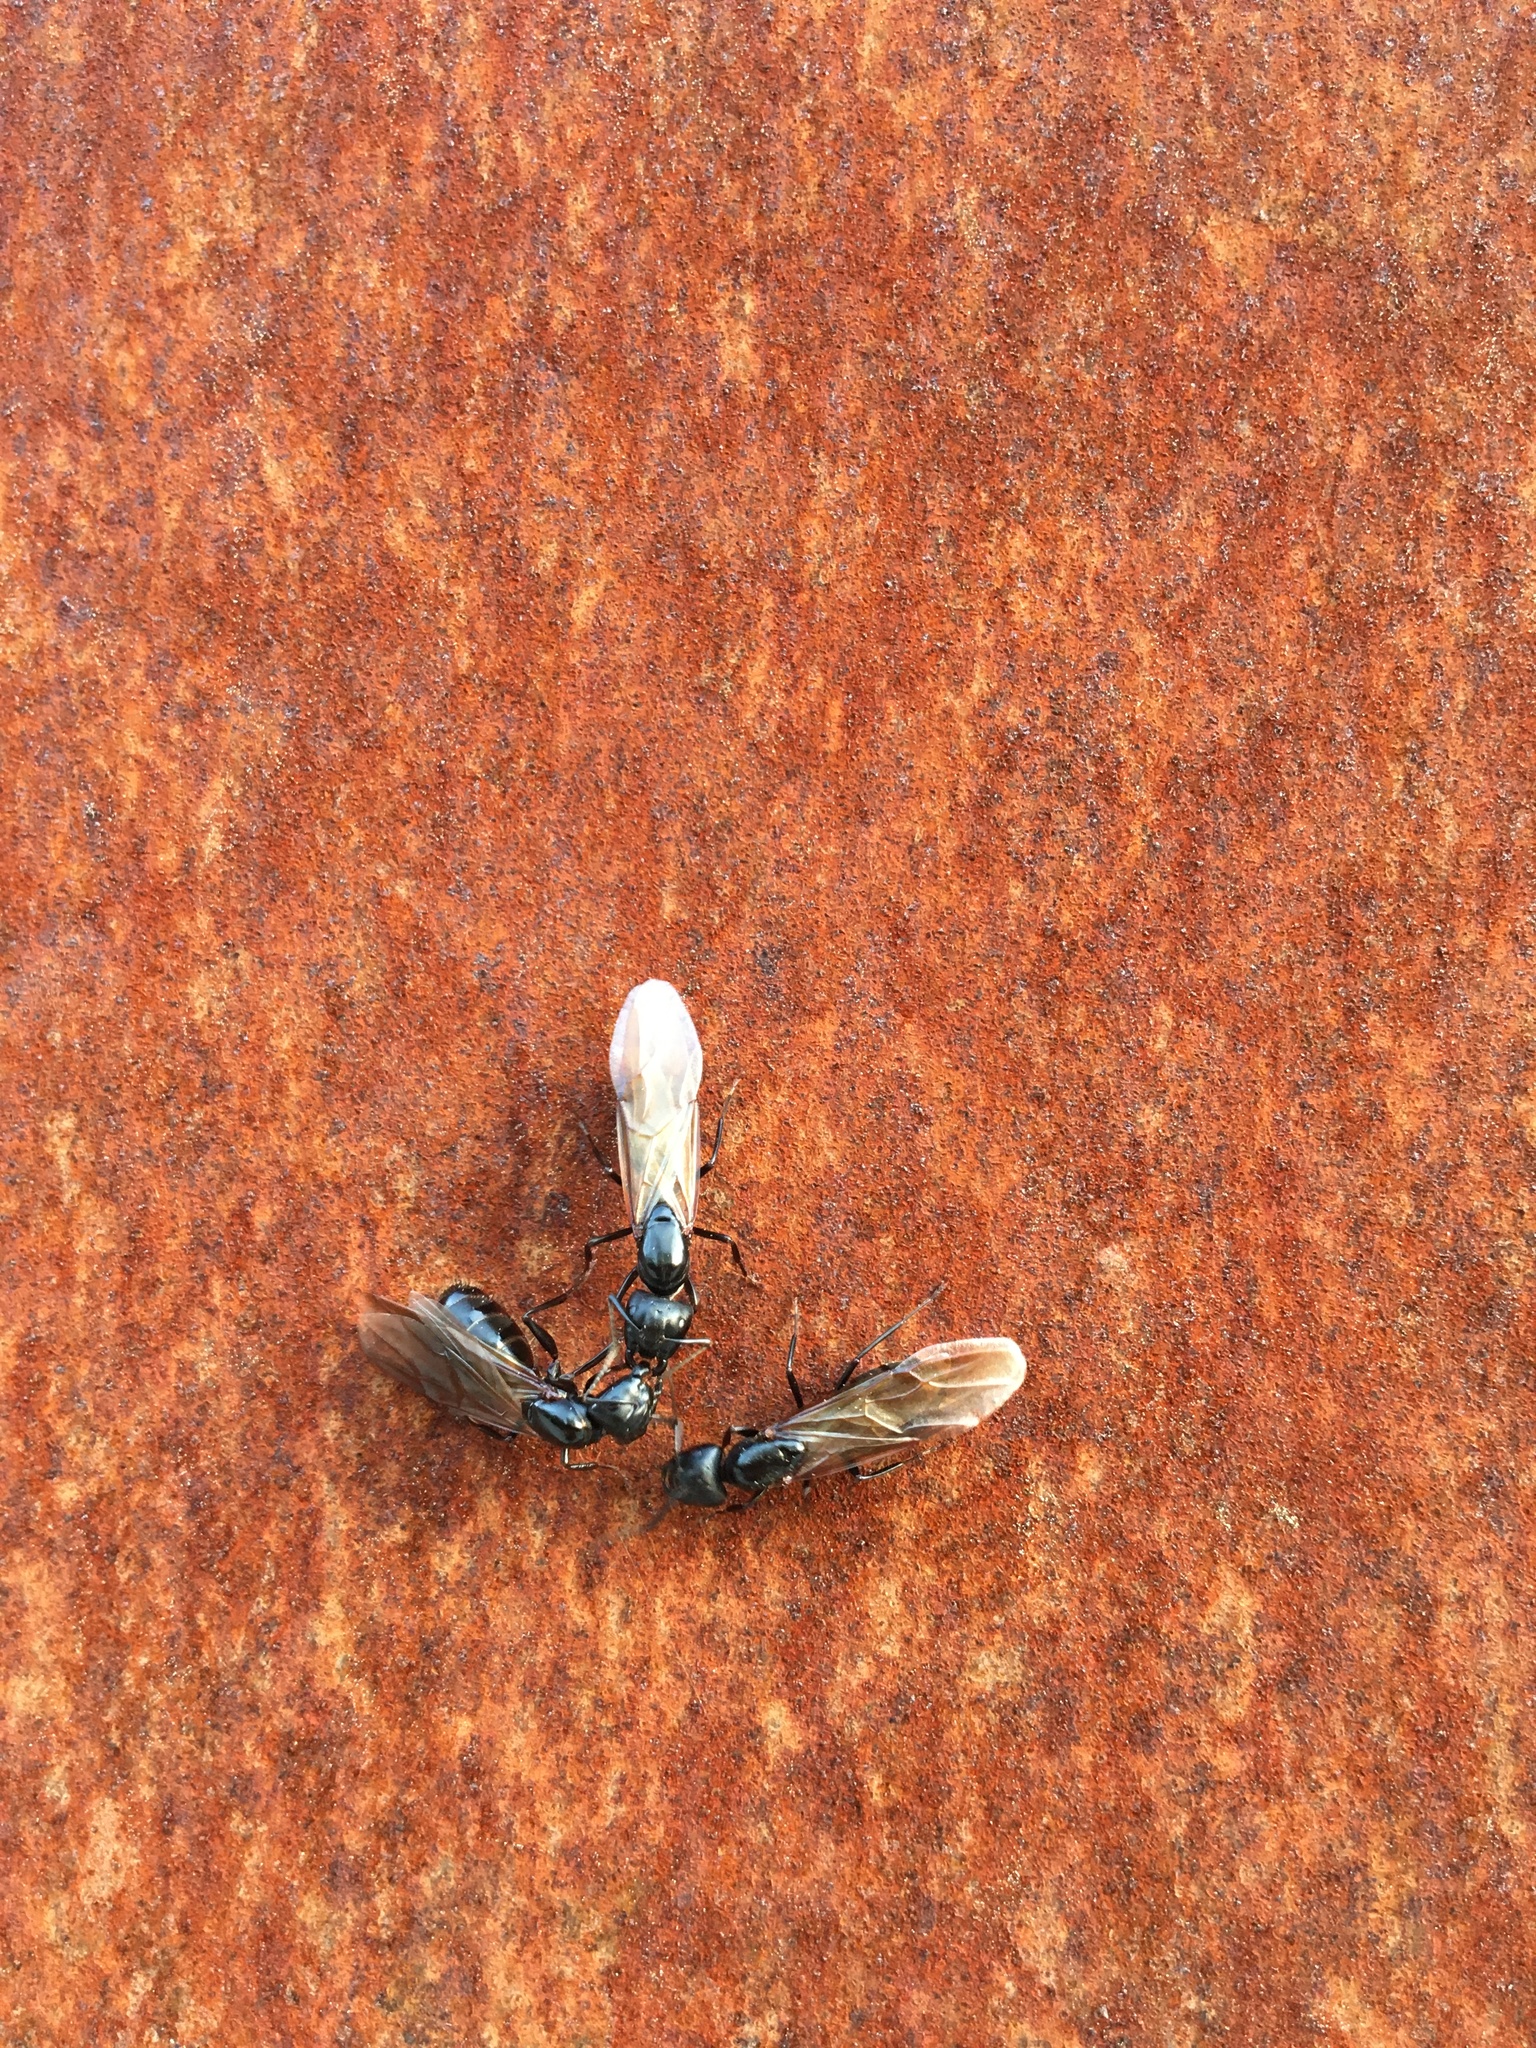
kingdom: Animalia
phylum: Arthropoda
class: Insecta
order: Hymenoptera
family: Formicidae
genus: Camponotus
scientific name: Camponotus pennsylvanicus
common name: Black carpenter ant
